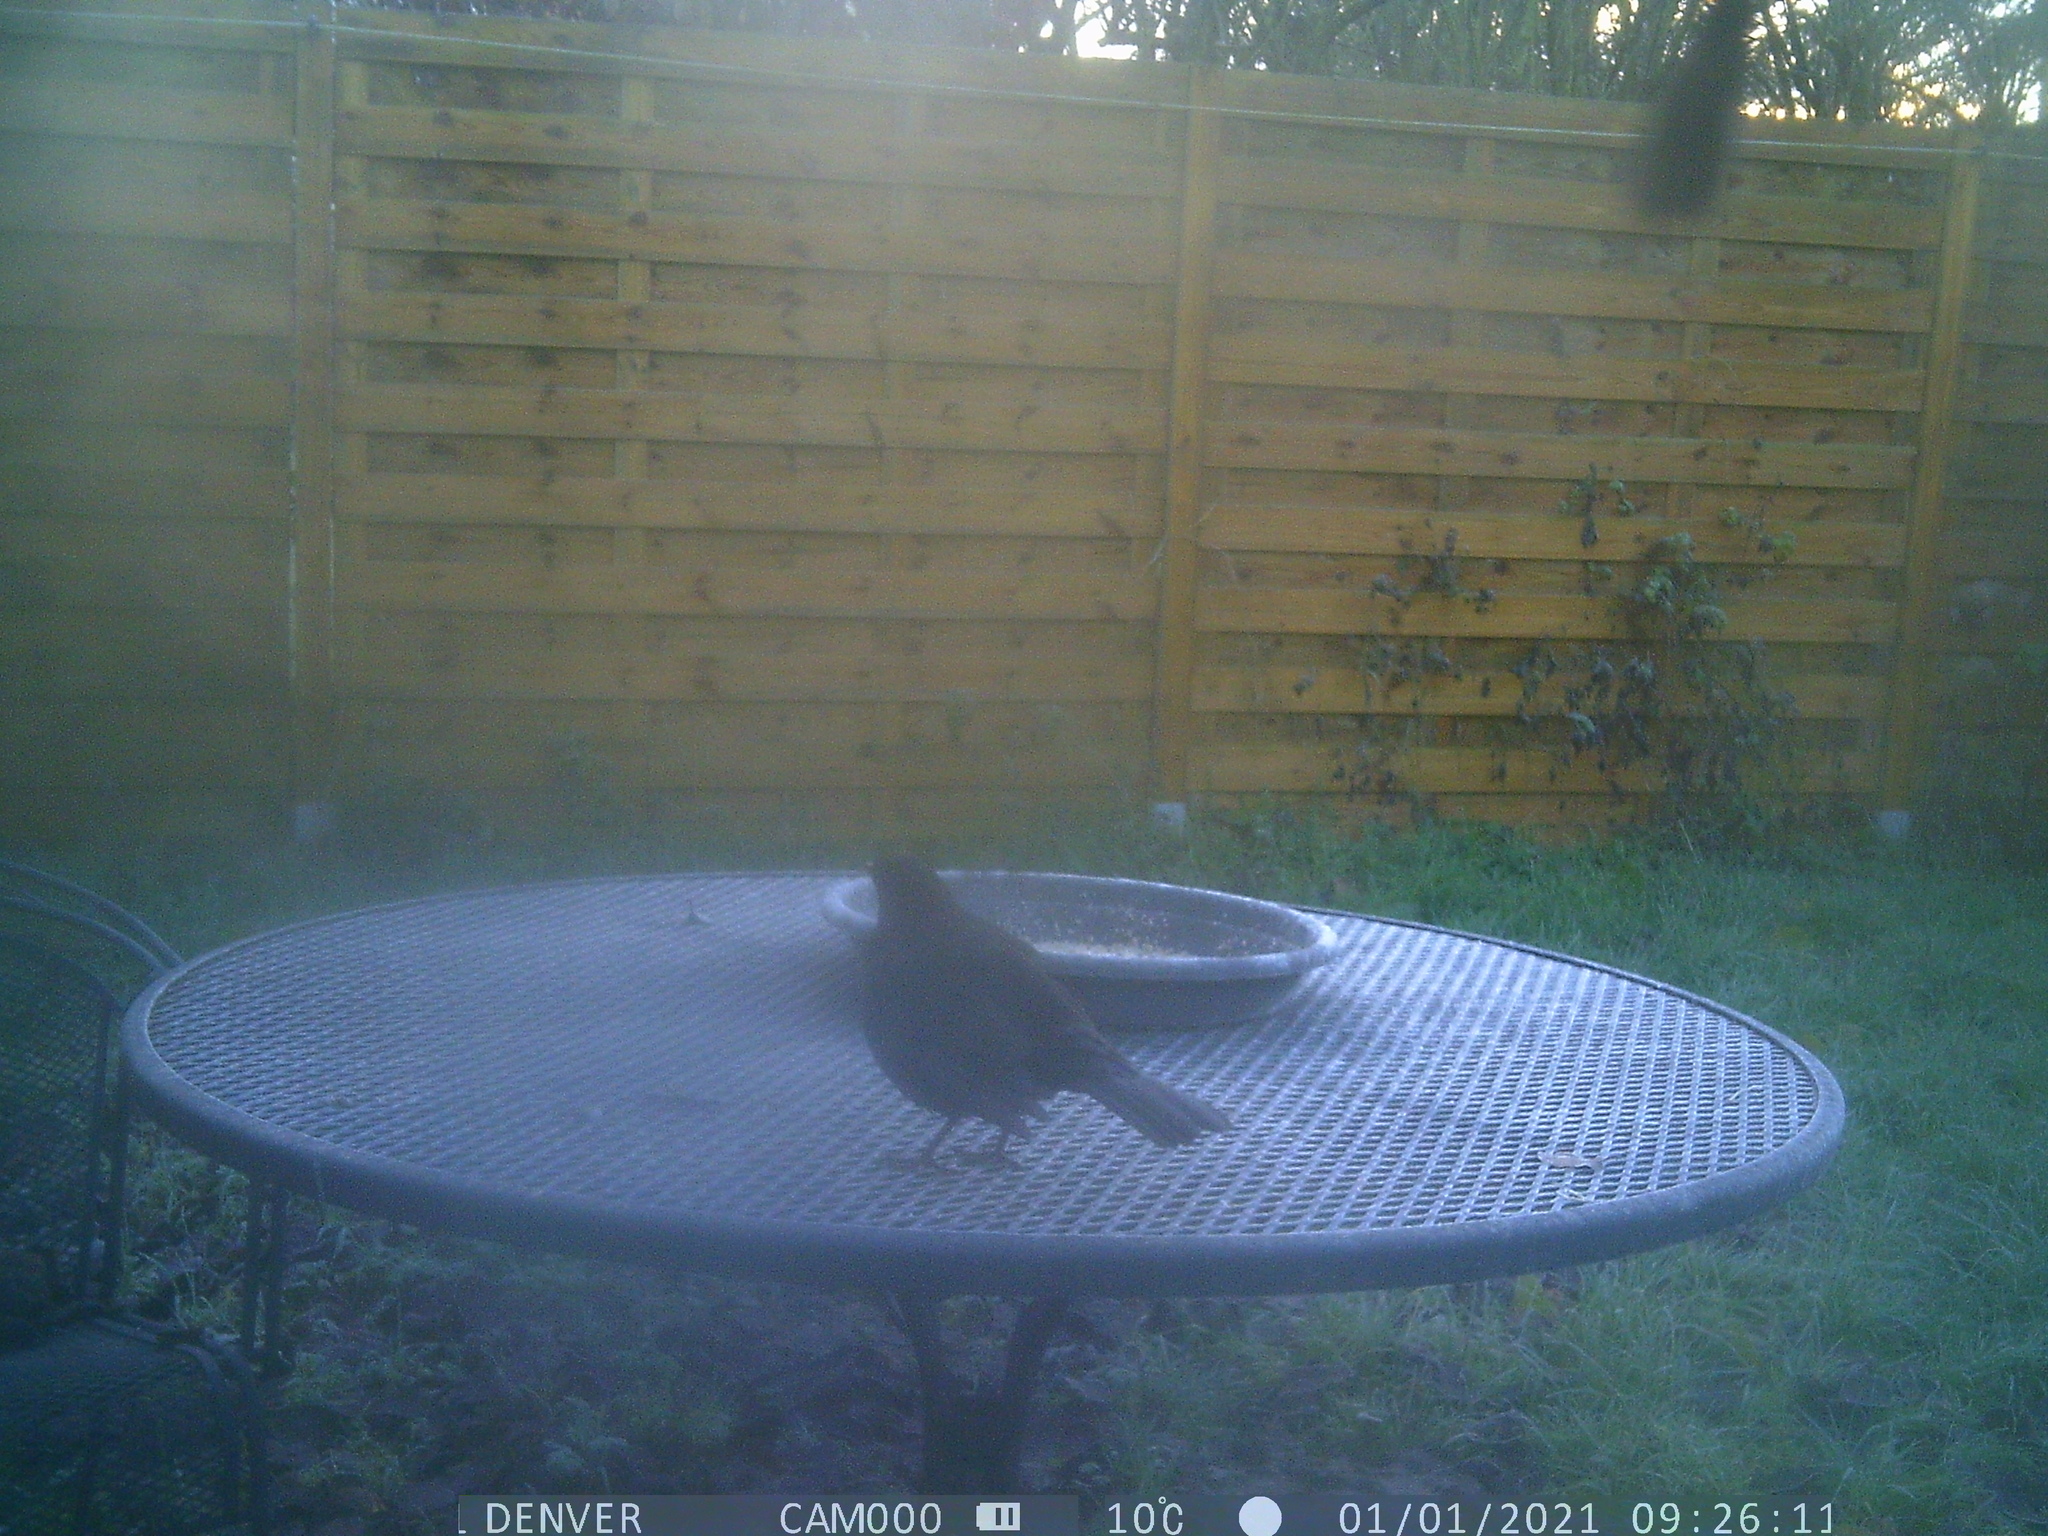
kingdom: Animalia
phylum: Chordata
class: Aves
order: Passeriformes
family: Turdidae
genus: Turdus
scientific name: Turdus merula
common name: Common blackbird
